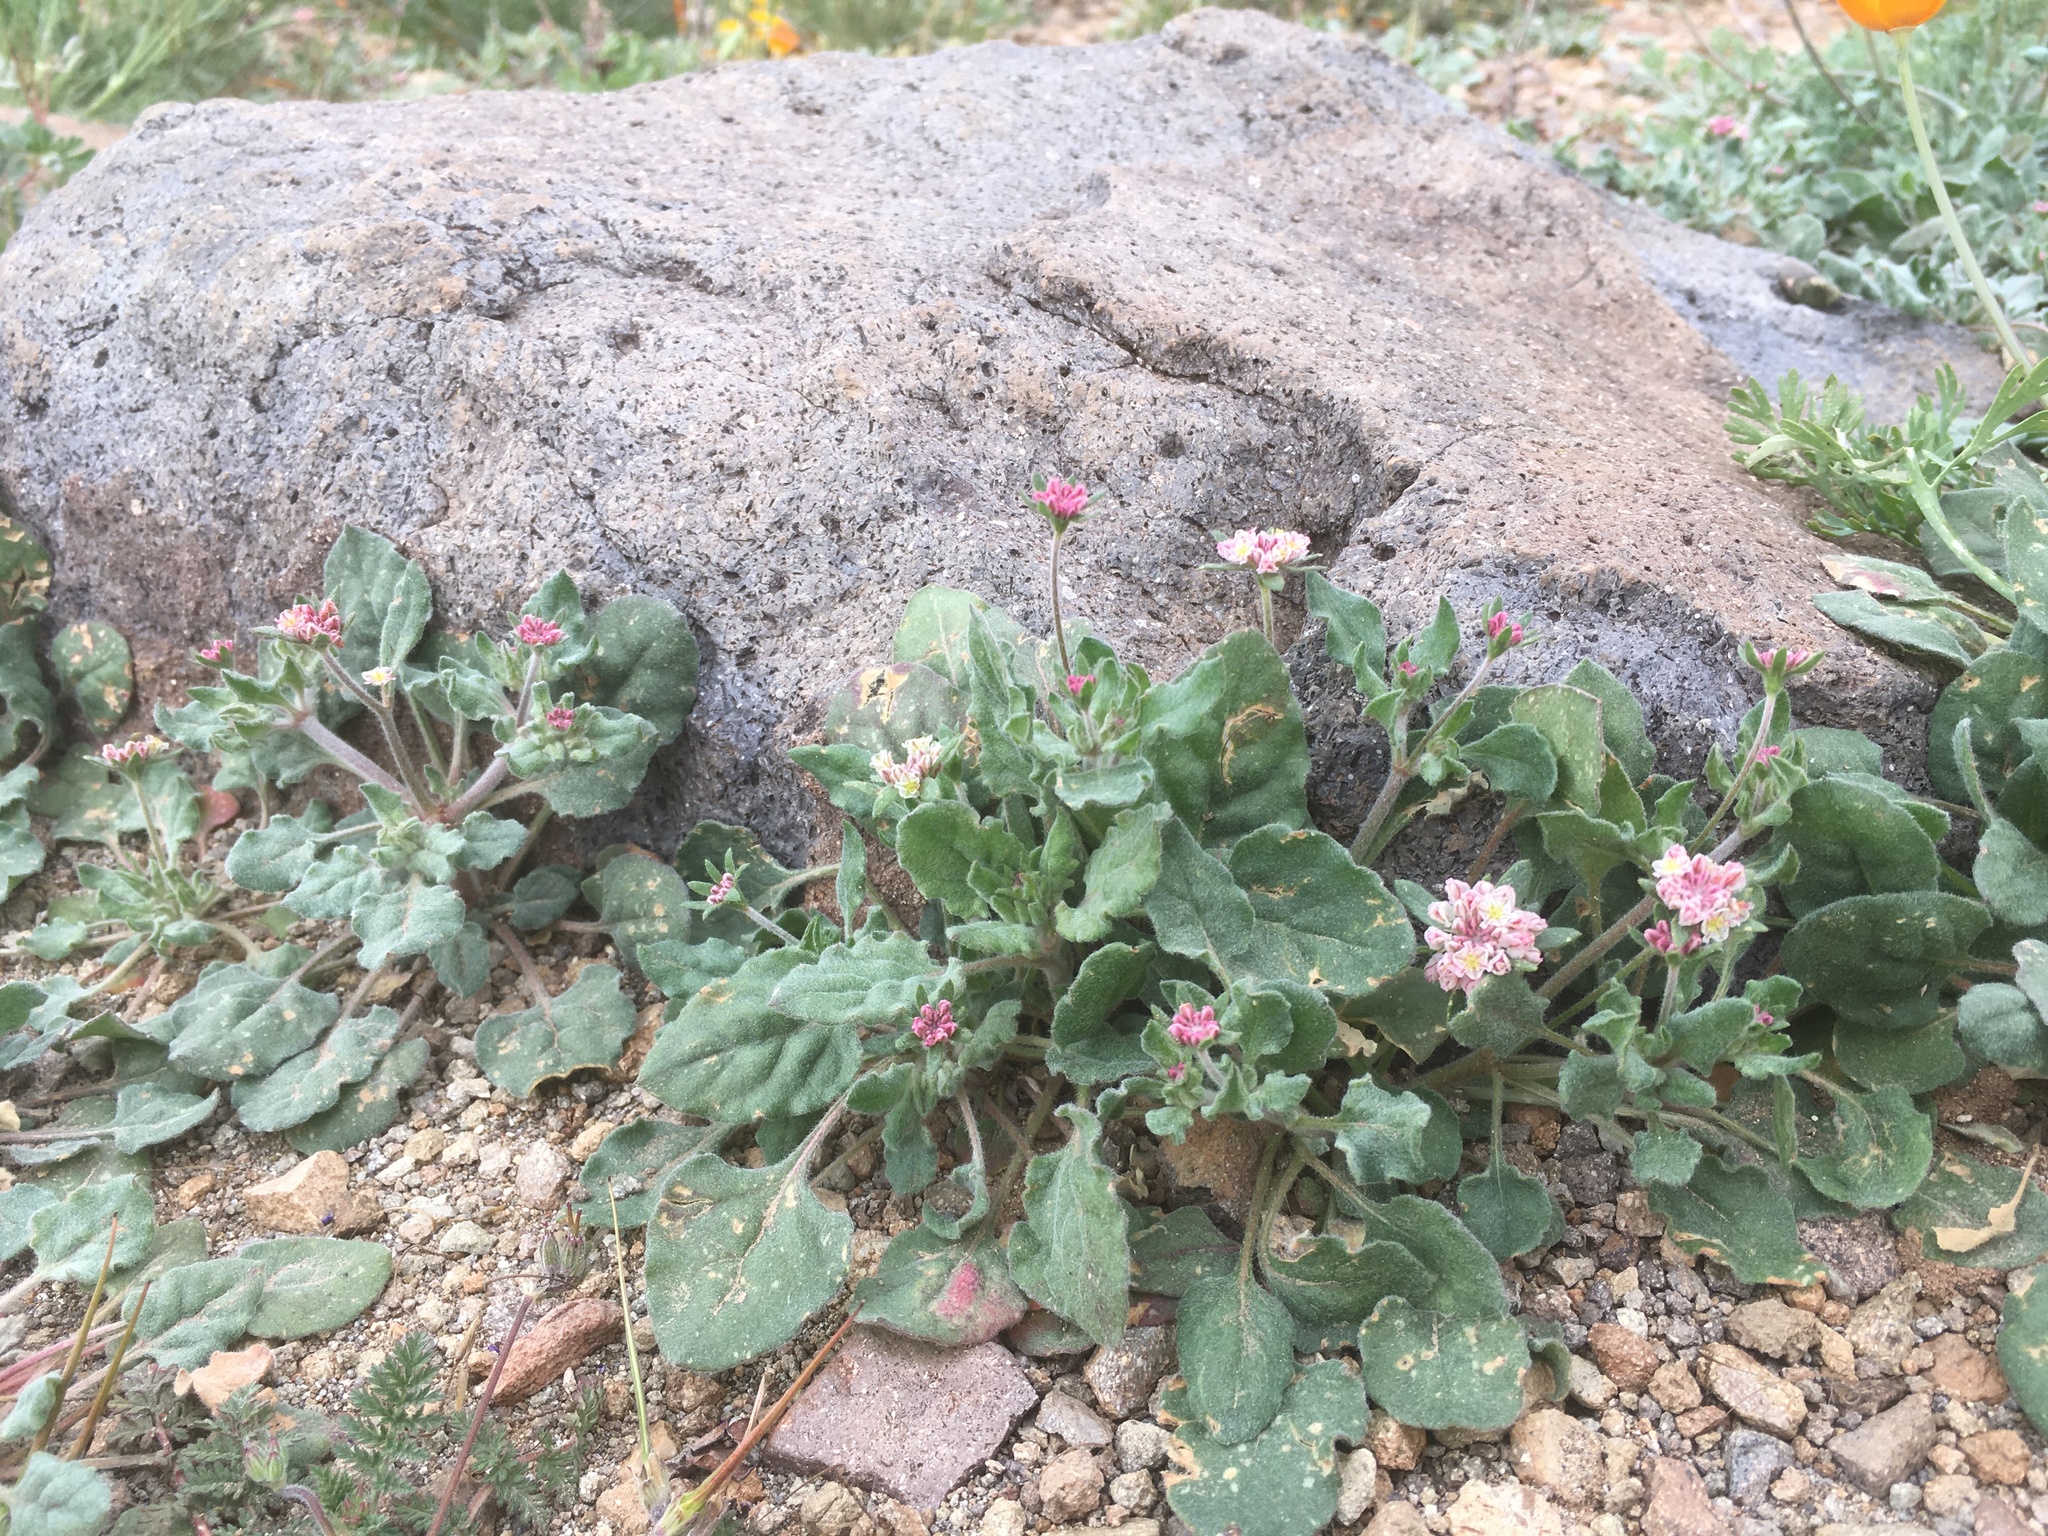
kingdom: Plantae
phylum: Tracheophyta
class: Magnoliopsida
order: Caryophyllales
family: Polygonaceae
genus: Eriogonum
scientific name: Eriogonum abertianum
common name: Abert's wild buckwheat
